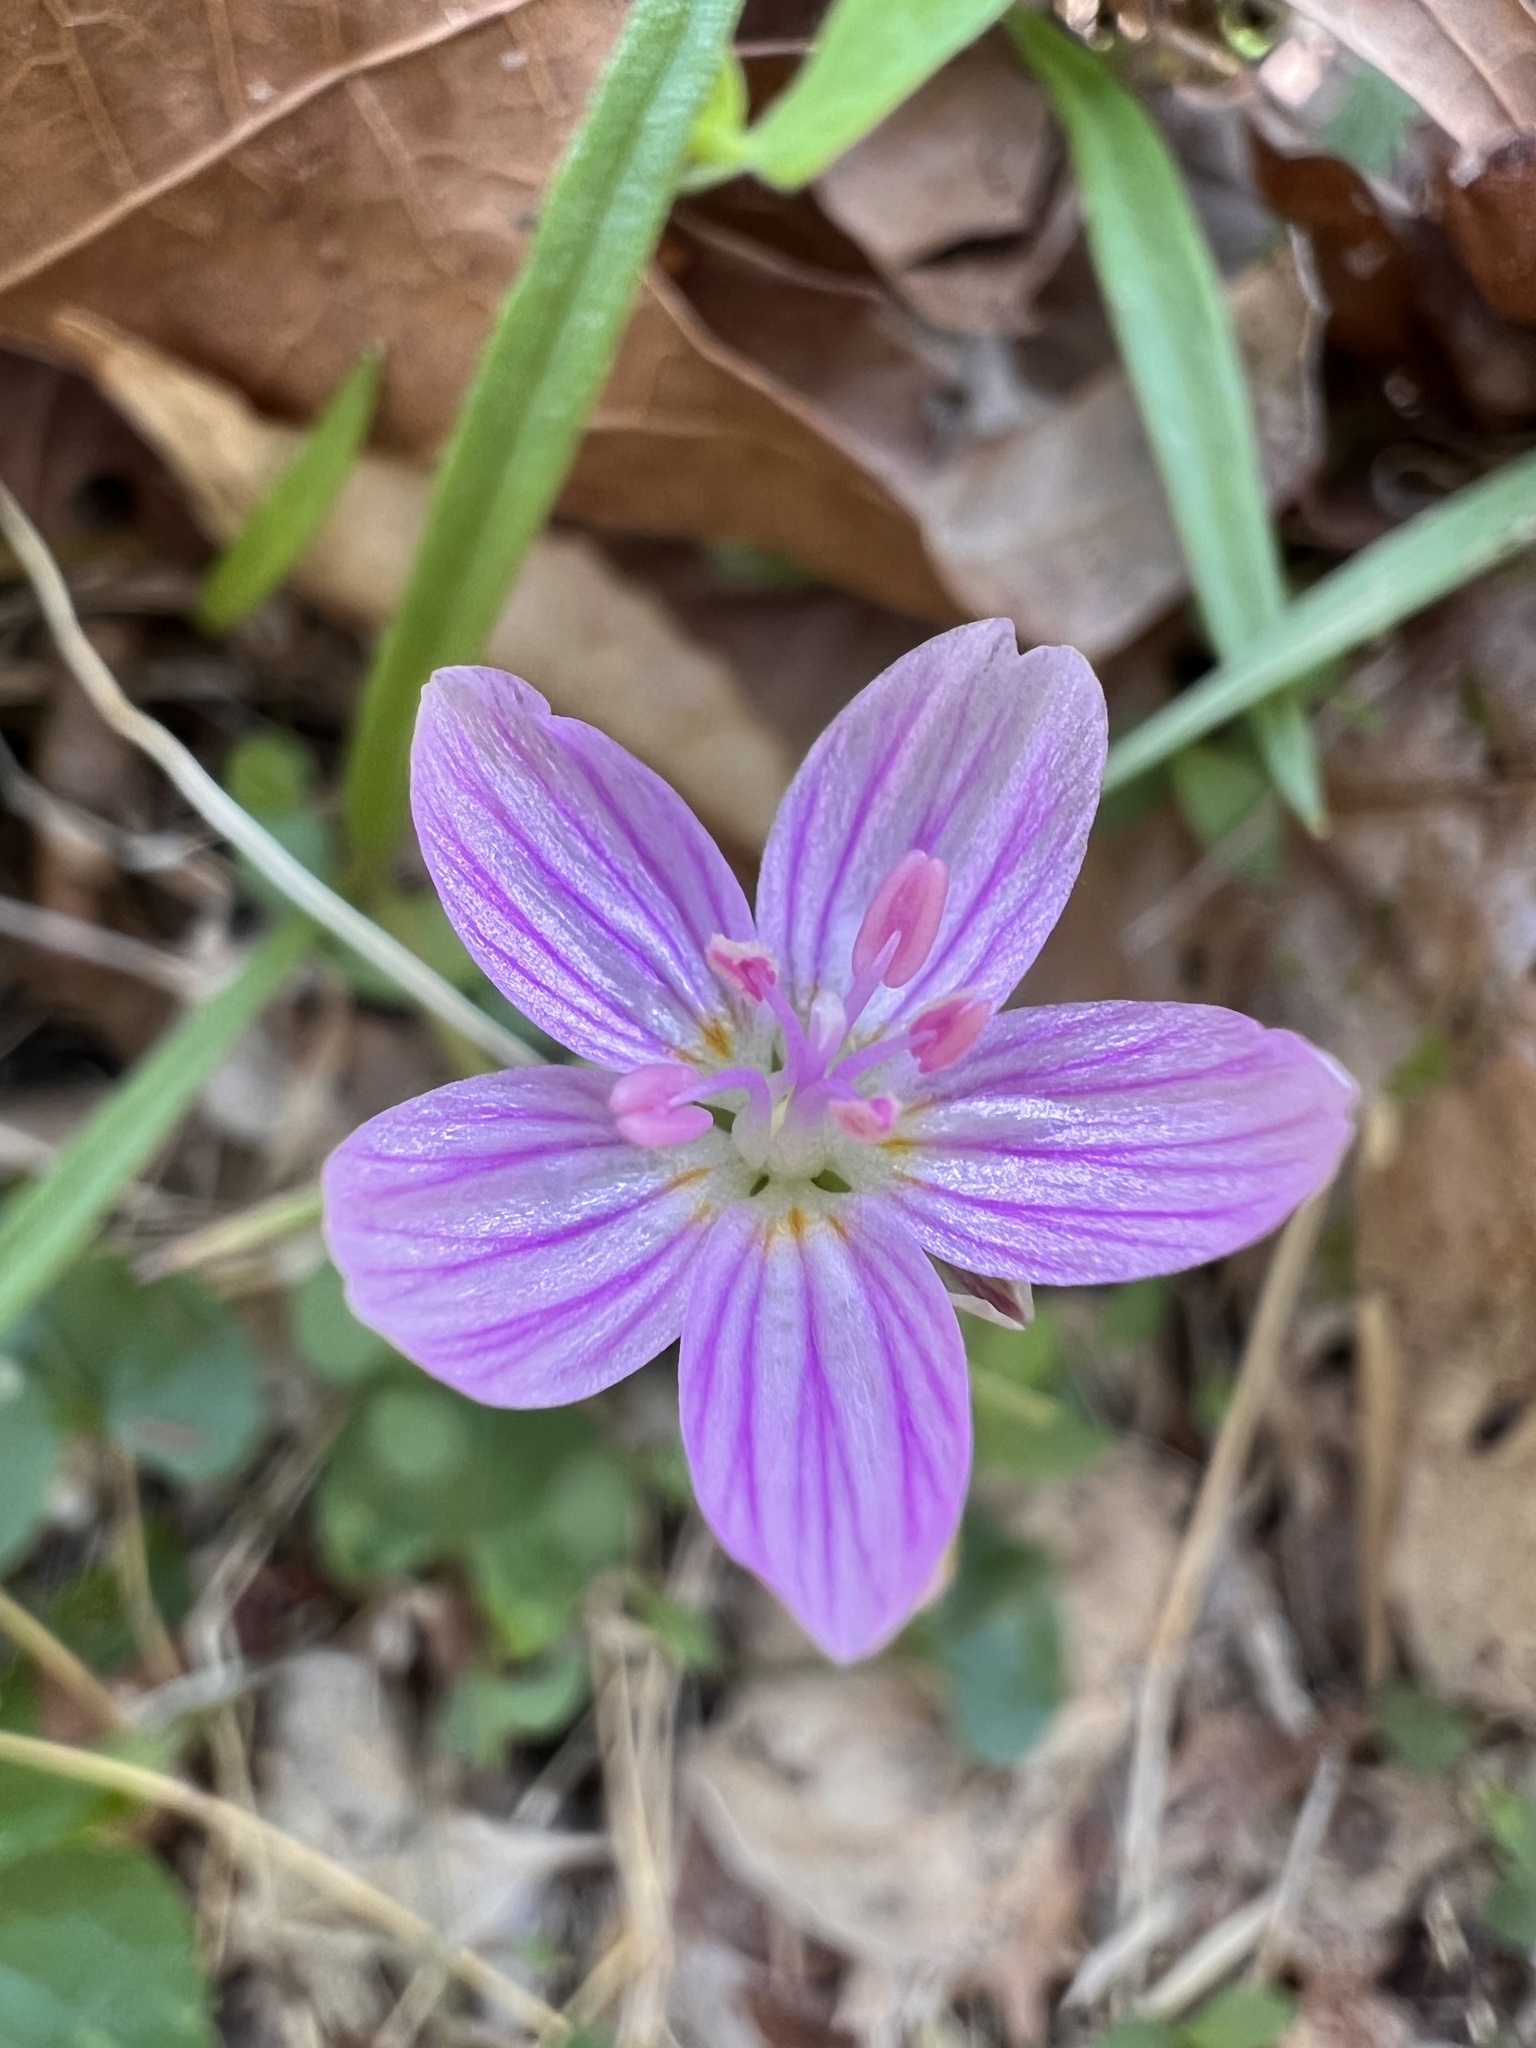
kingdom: Plantae
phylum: Tracheophyta
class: Magnoliopsida
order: Caryophyllales
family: Montiaceae
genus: Claytonia
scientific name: Claytonia virginica
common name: Virginia springbeauty
